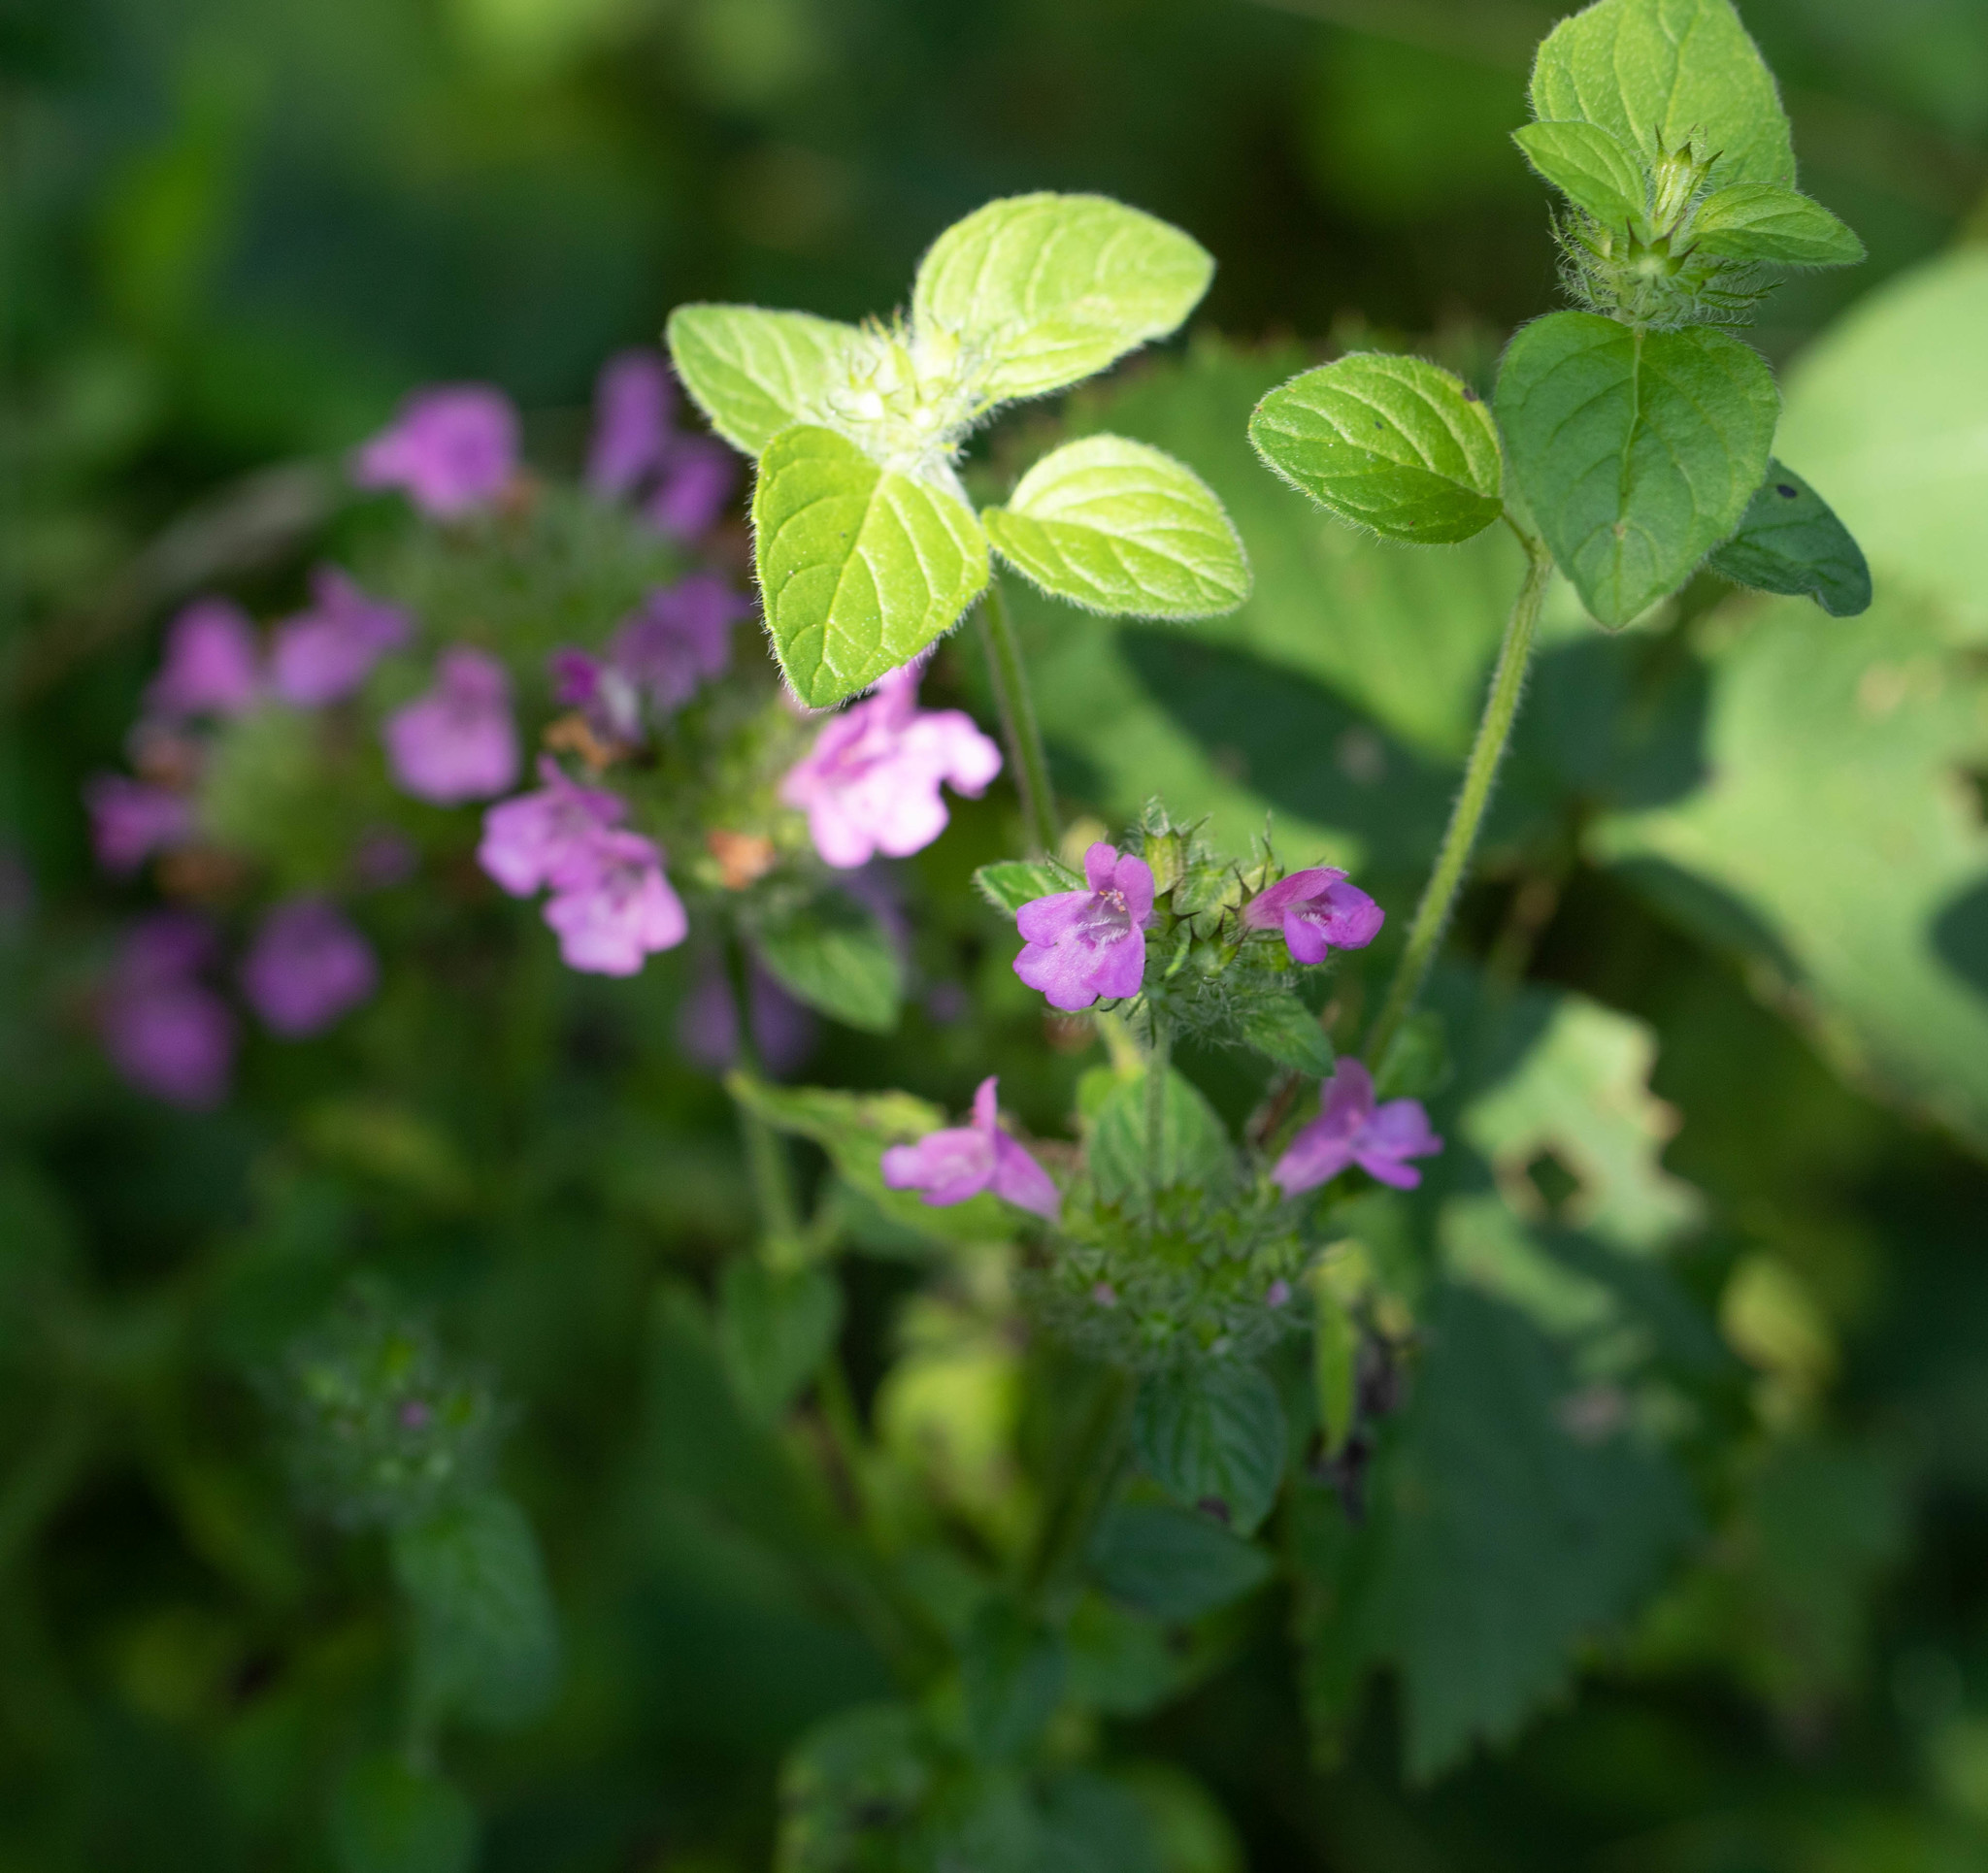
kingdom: Plantae
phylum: Tracheophyta
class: Magnoliopsida
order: Lamiales
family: Lamiaceae
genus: Clinopodium
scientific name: Clinopodium vulgare
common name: Wild basil
